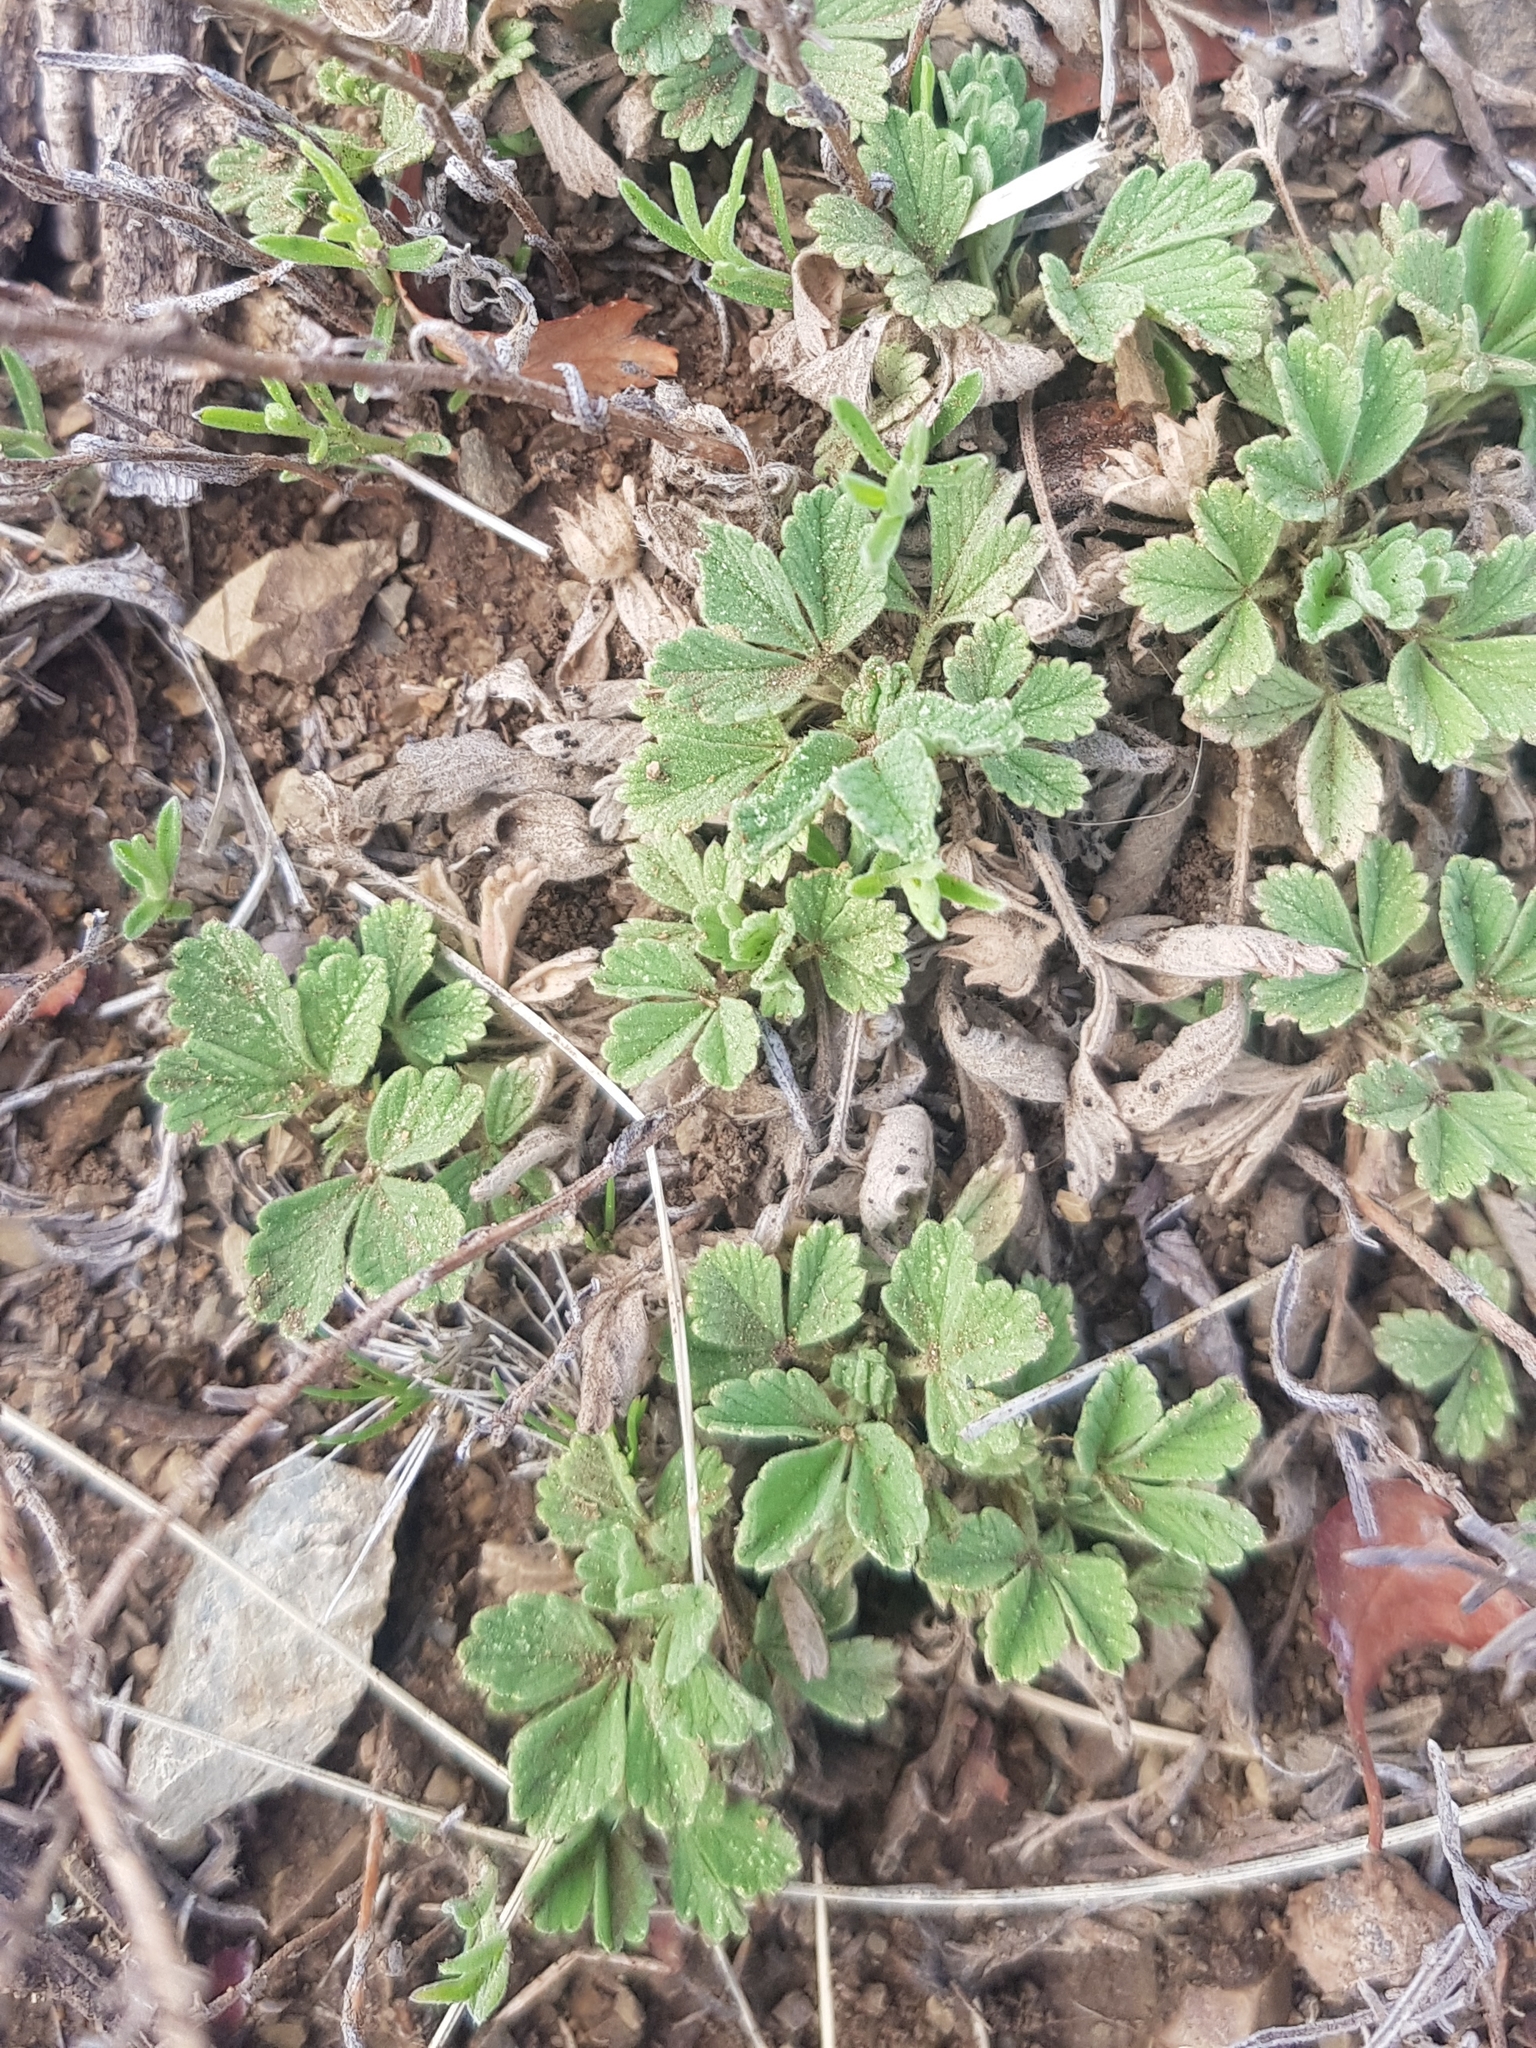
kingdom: Plantae
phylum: Tracheophyta
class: Magnoliopsida
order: Rosales
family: Rosaceae
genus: Potentilla
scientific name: Potentilla acaulis
